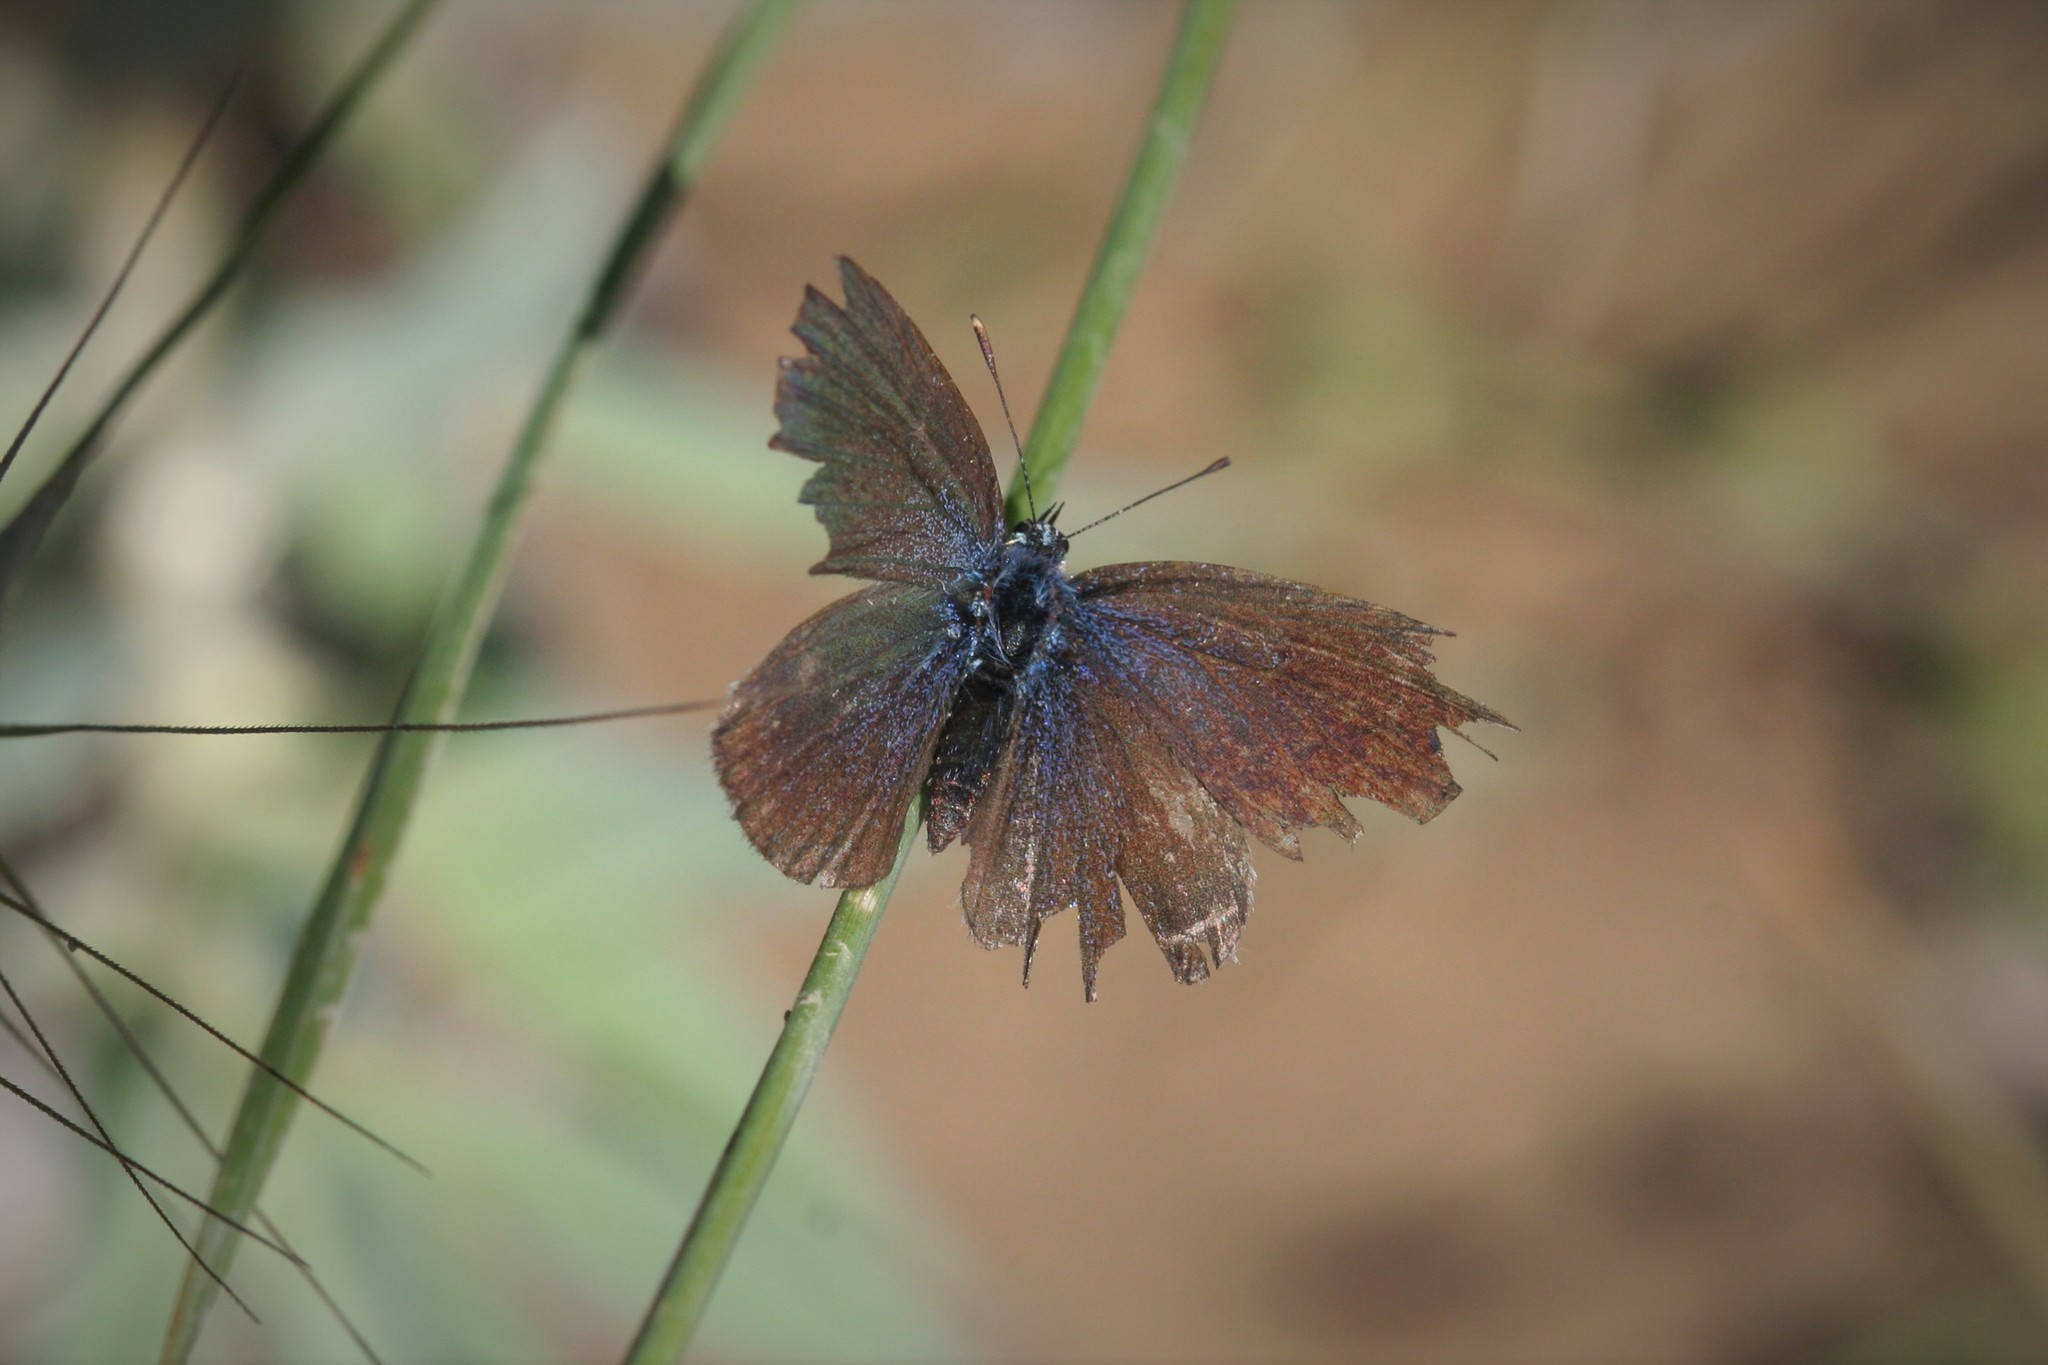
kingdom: Animalia
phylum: Arthropoda
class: Insecta
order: Lepidoptera
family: Lycaenidae
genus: Everes
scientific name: Everes sebrus
